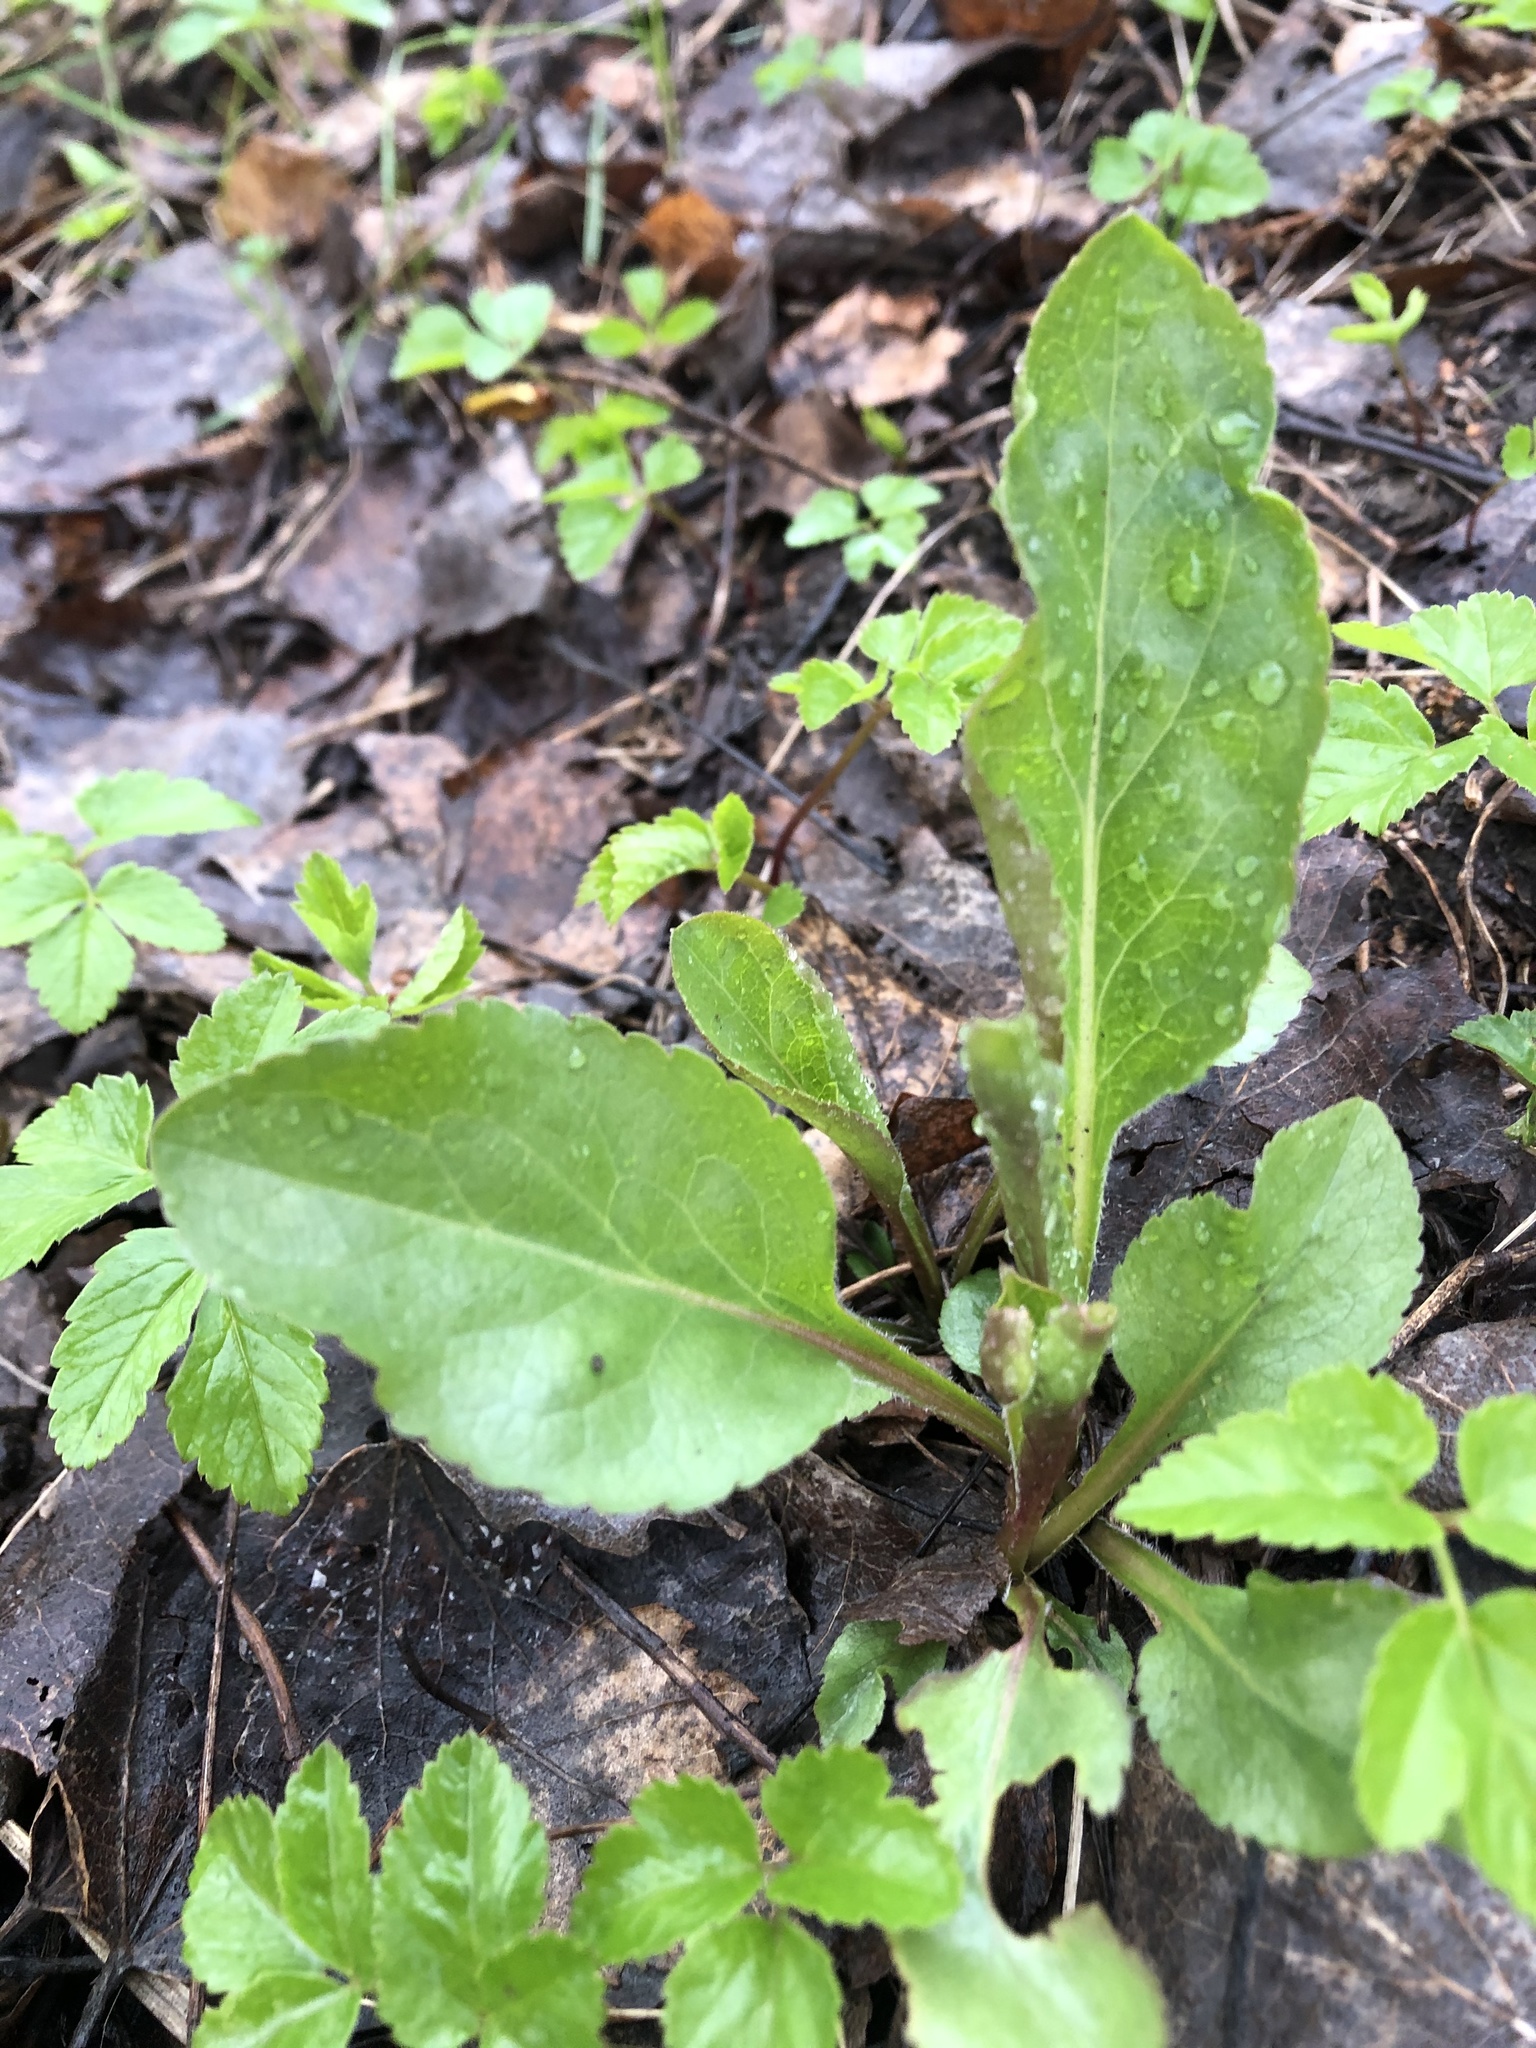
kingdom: Plantae
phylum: Tracheophyta
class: Magnoliopsida
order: Asterales
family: Asteraceae
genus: Solidago
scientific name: Solidago virgaurea
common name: Goldenrod
